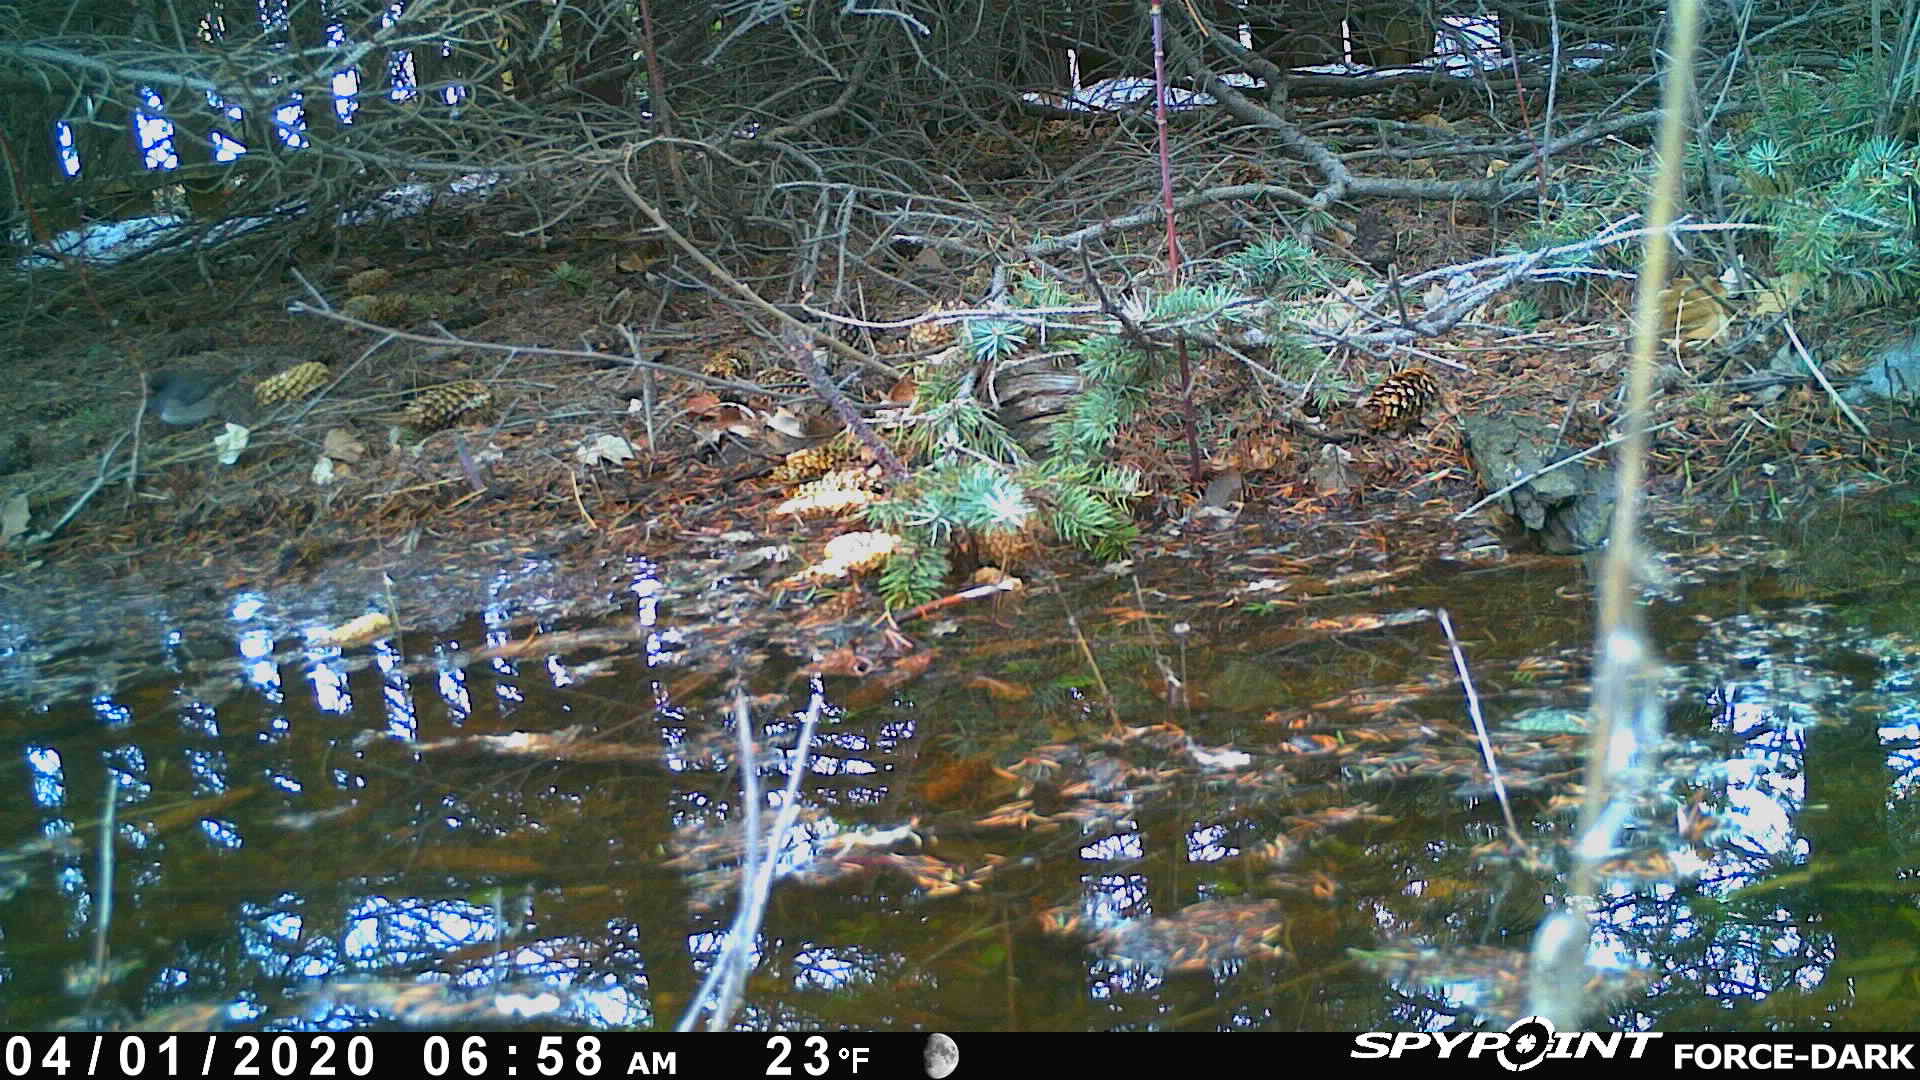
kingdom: Animalia
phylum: Chordata
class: Aves
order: Passeriformes
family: Passerellidae
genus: Junco
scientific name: Junco hyemalis
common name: Dark-eyed junco
